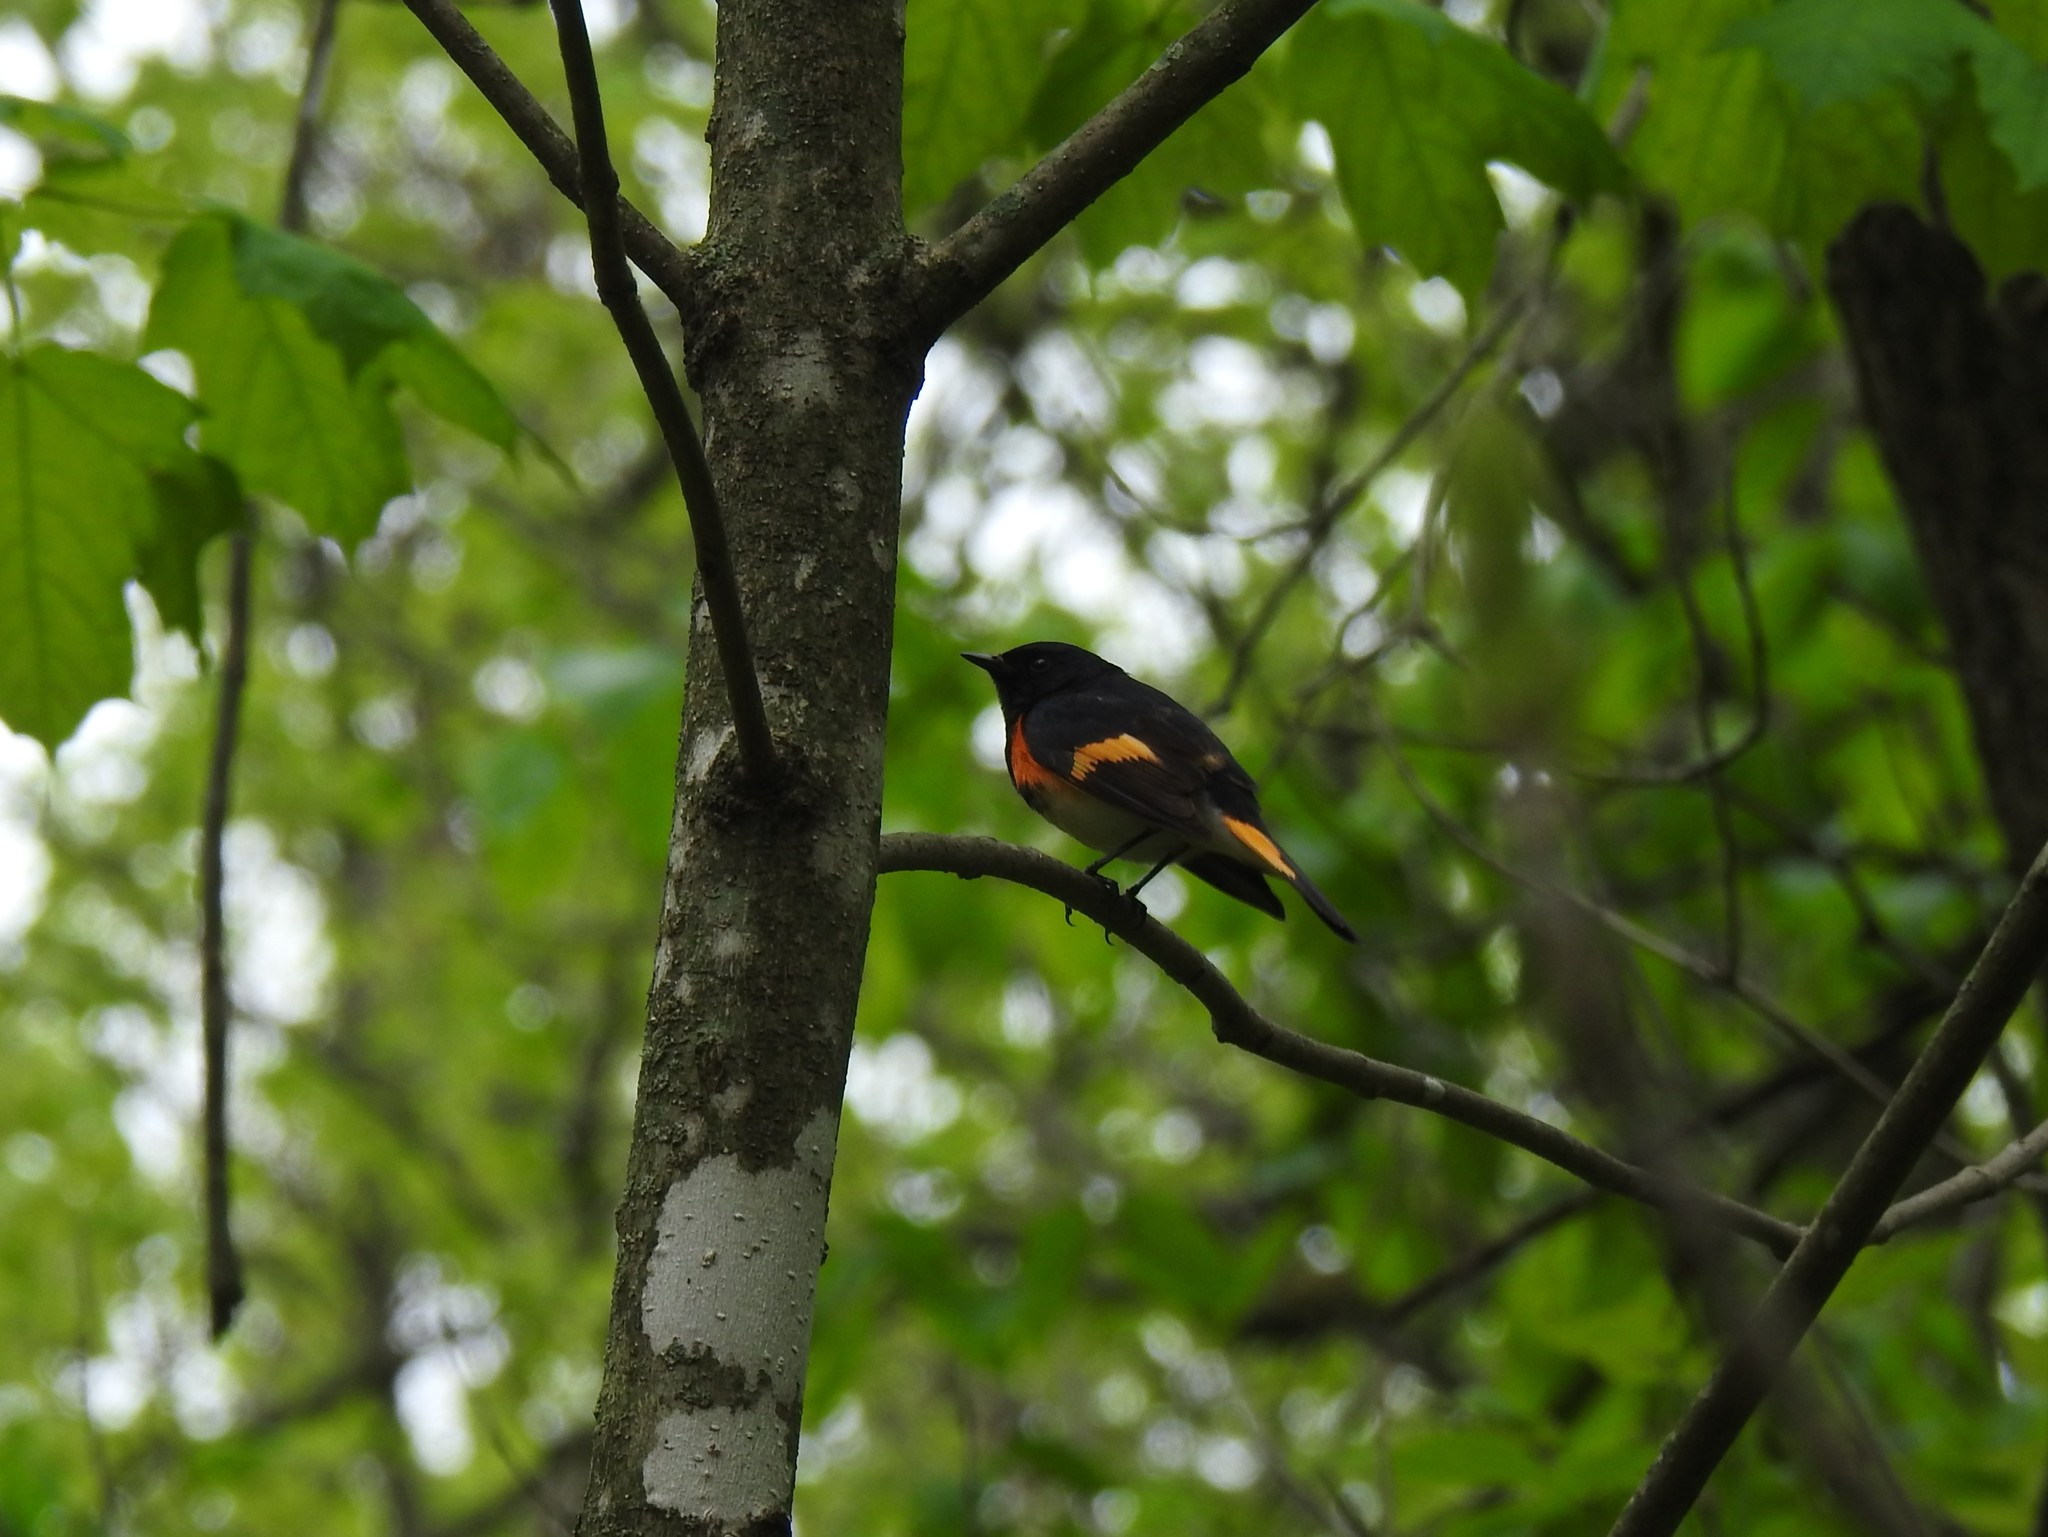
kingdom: Animalia
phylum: Chordata
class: Aves
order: Passeriformes
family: Parulidae
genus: Setophaga
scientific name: Setophaga ruticilla
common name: American redstart
